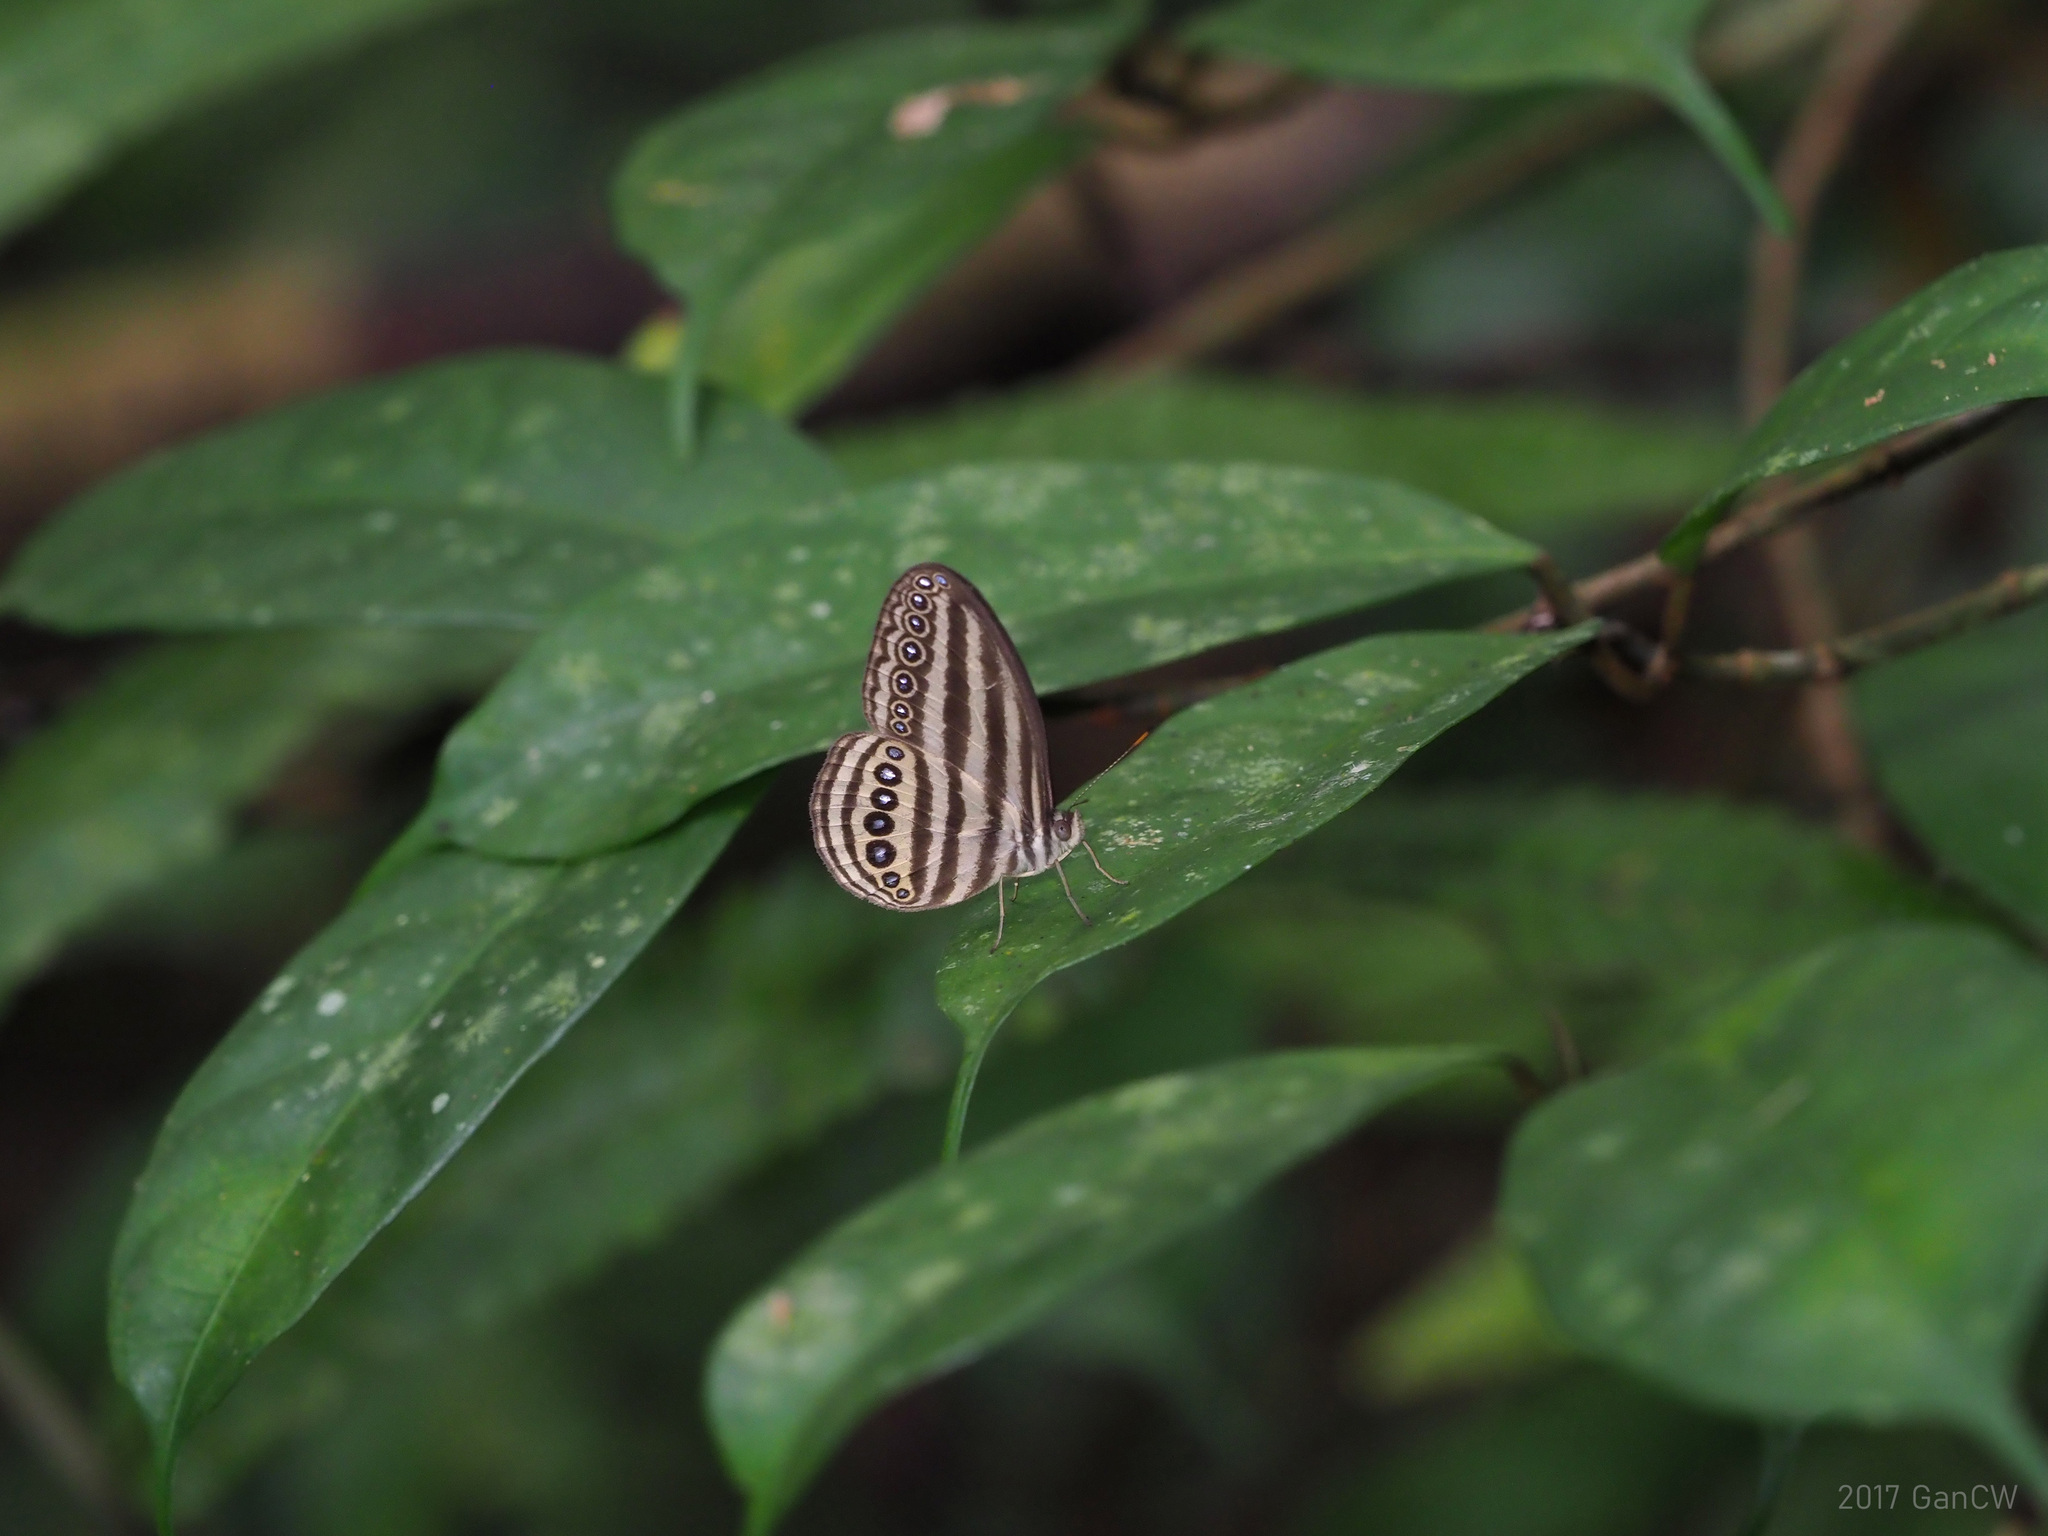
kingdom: Animalia
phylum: Arthropoda
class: Insecta
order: Lepidoptera
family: Nymphalidae
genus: Ragadia
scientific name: Ragadia makuta
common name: Striped ringlet
